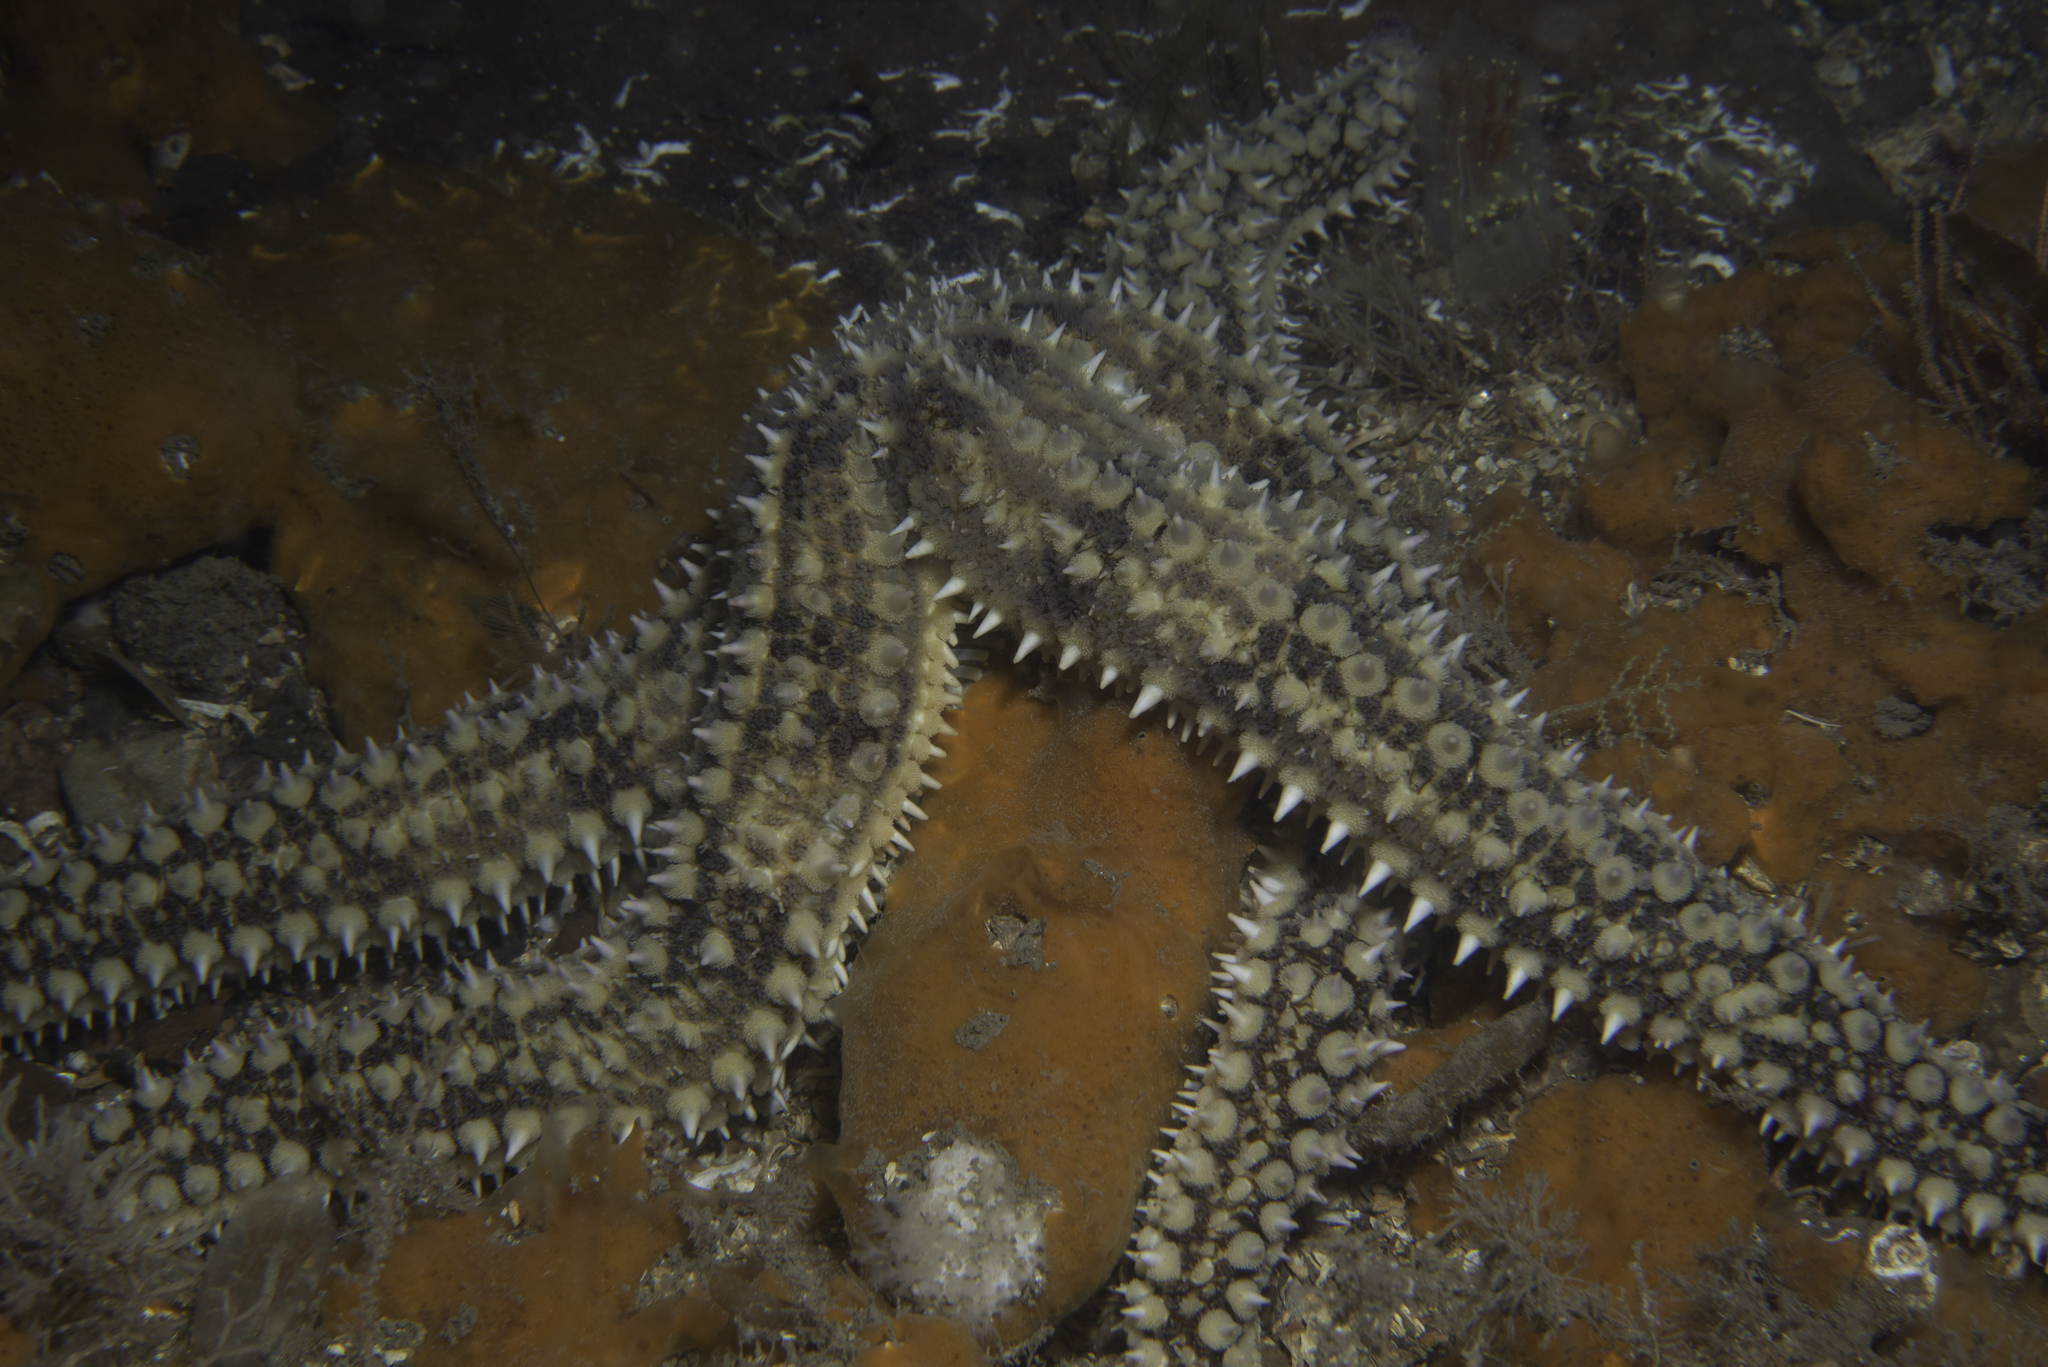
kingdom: Animalia
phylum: Echinodermata
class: Asteroidea
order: Forcipulatida
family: Asteriidae
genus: Marthasterias
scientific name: Marthasterias glacialis
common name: Spiny starfish
